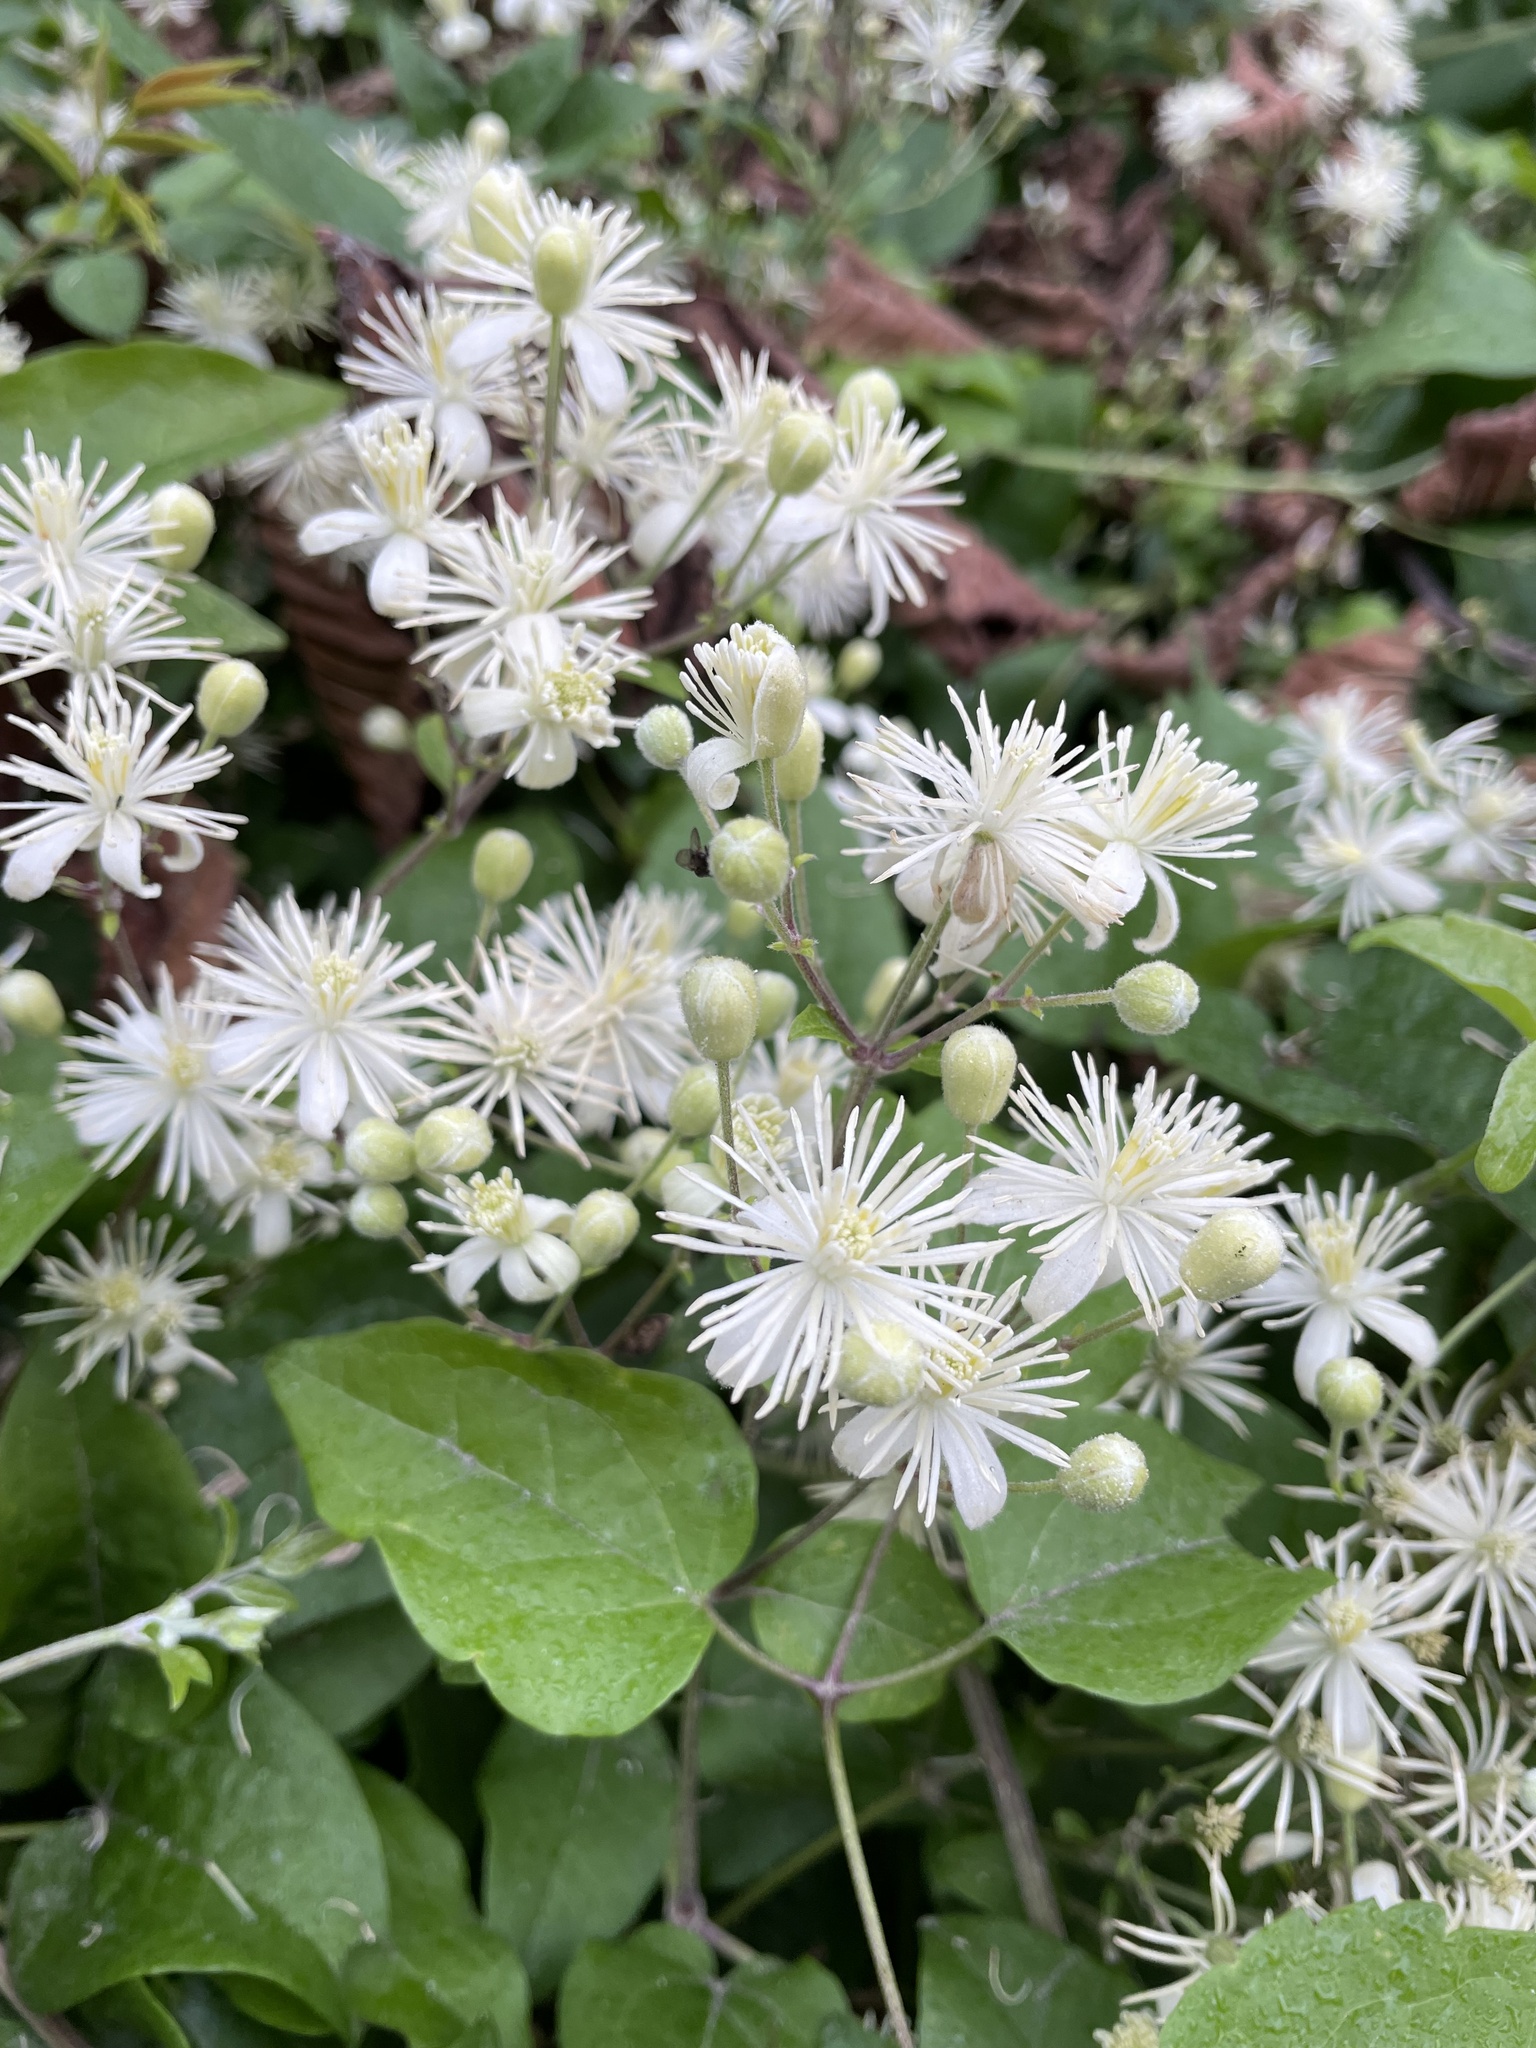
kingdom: Plantae
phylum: Tracheophyta
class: Magnoliopsida
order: Ranunculales
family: Ranunculaceae
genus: Clematis
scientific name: Clematis vitalba
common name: Evergreen clematis
